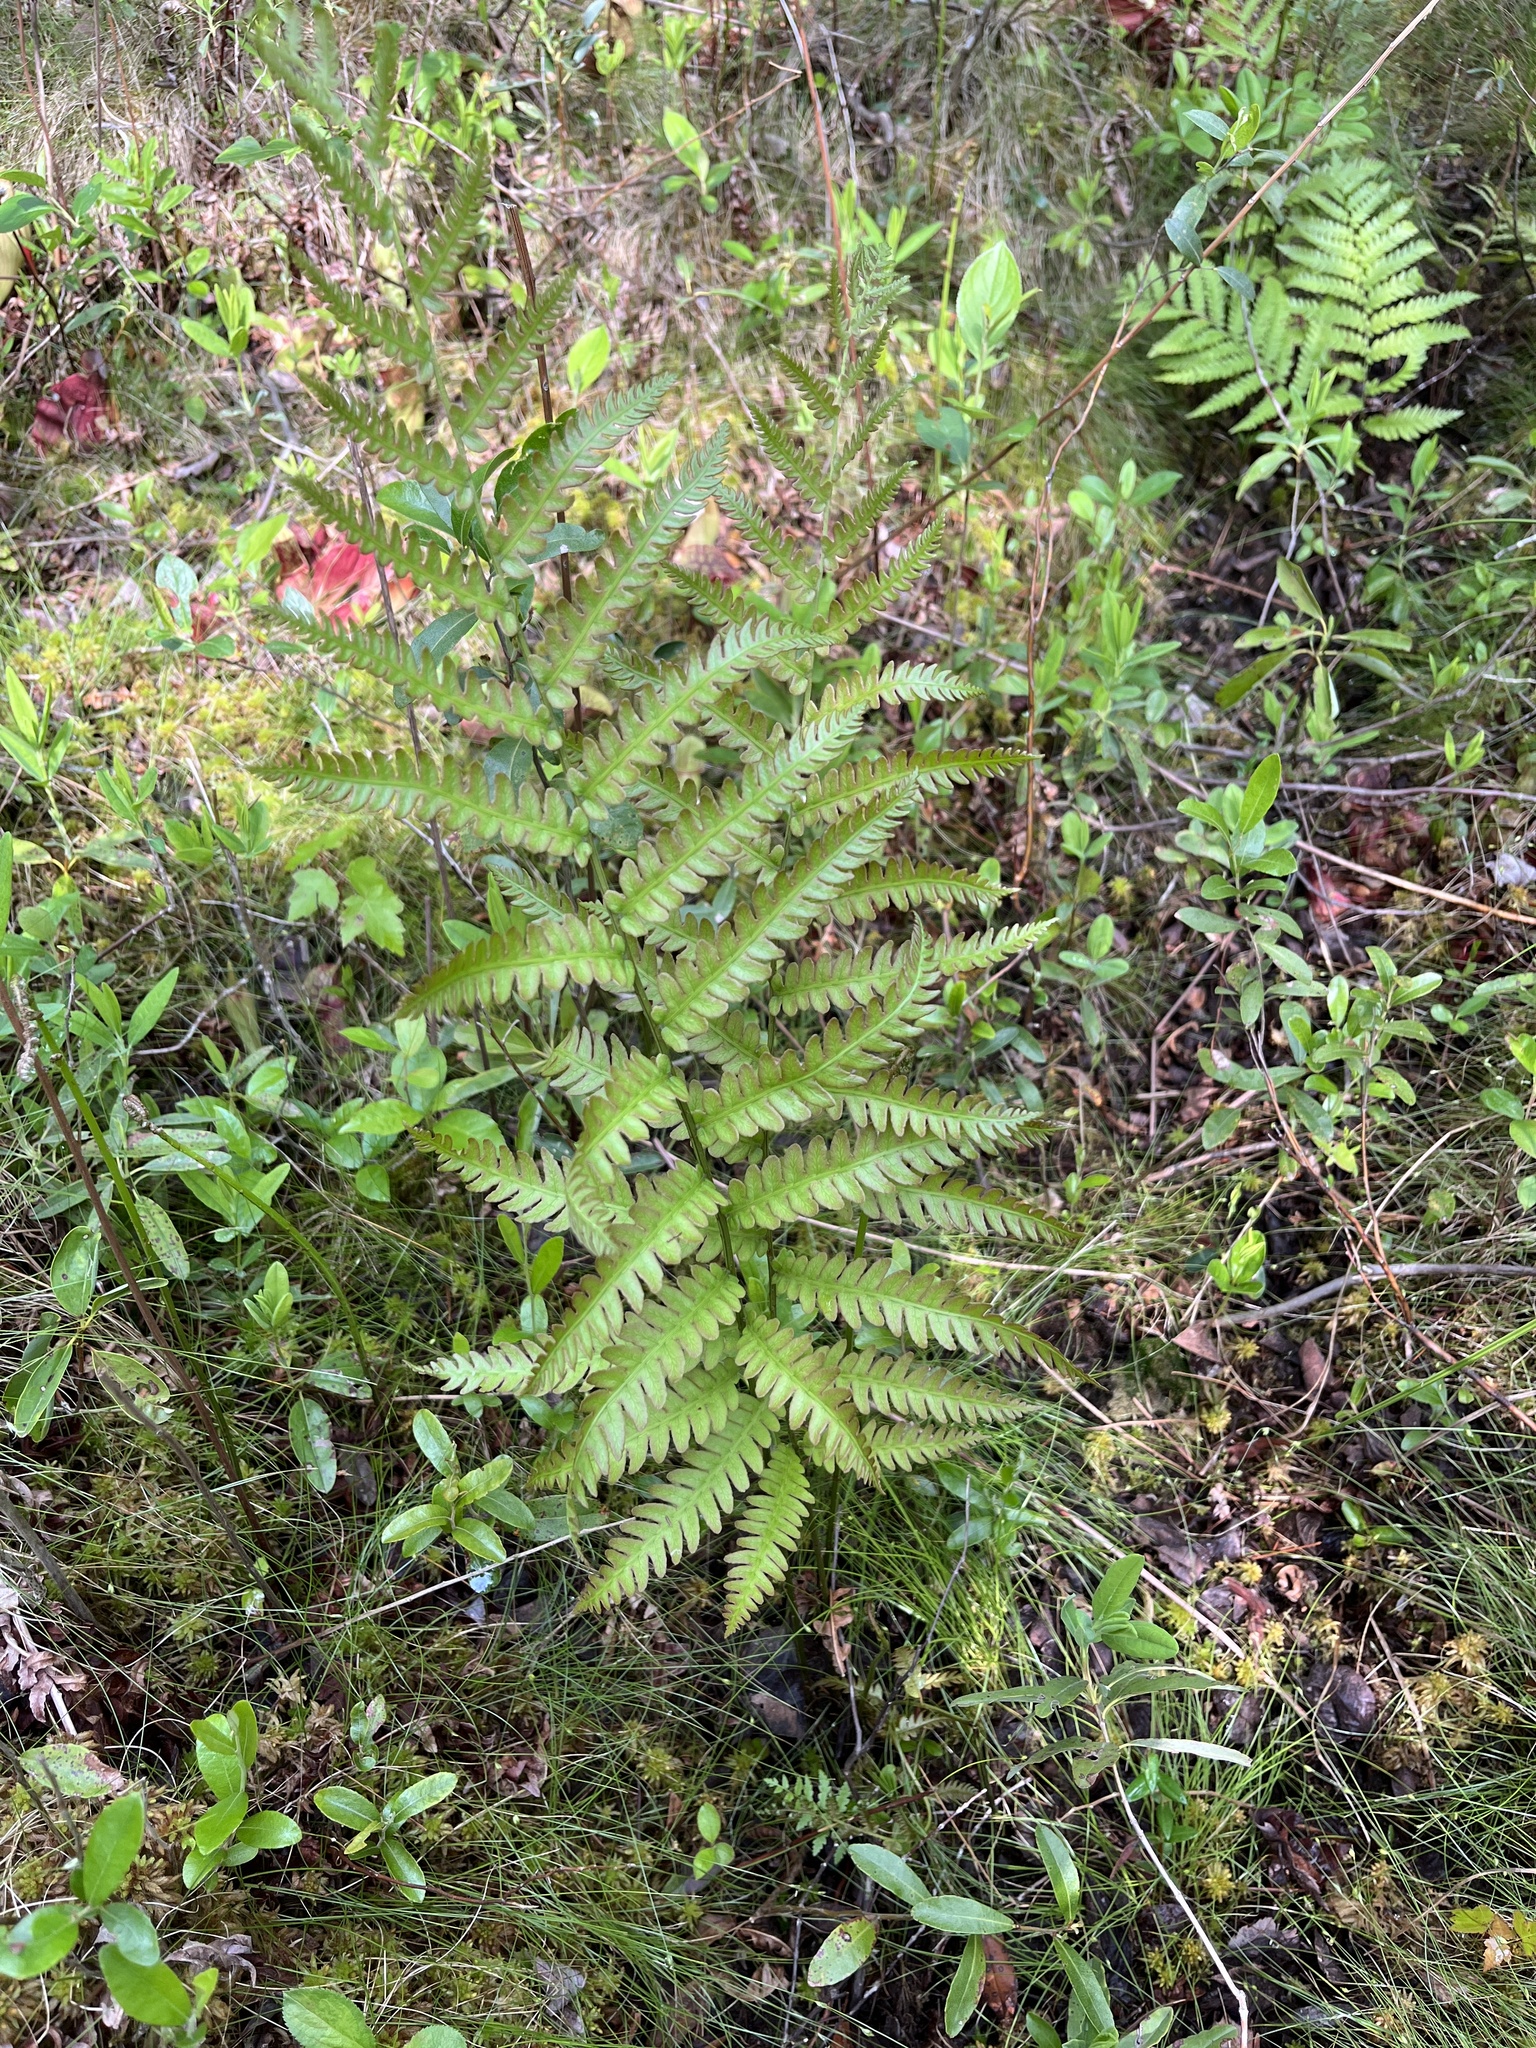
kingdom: Plantae
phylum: Tracheophyta
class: Polypodiopsida
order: Polypodiales
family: Blechnaceae
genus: Anchistea
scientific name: Anchistea virginica
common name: Virginia chain fern
